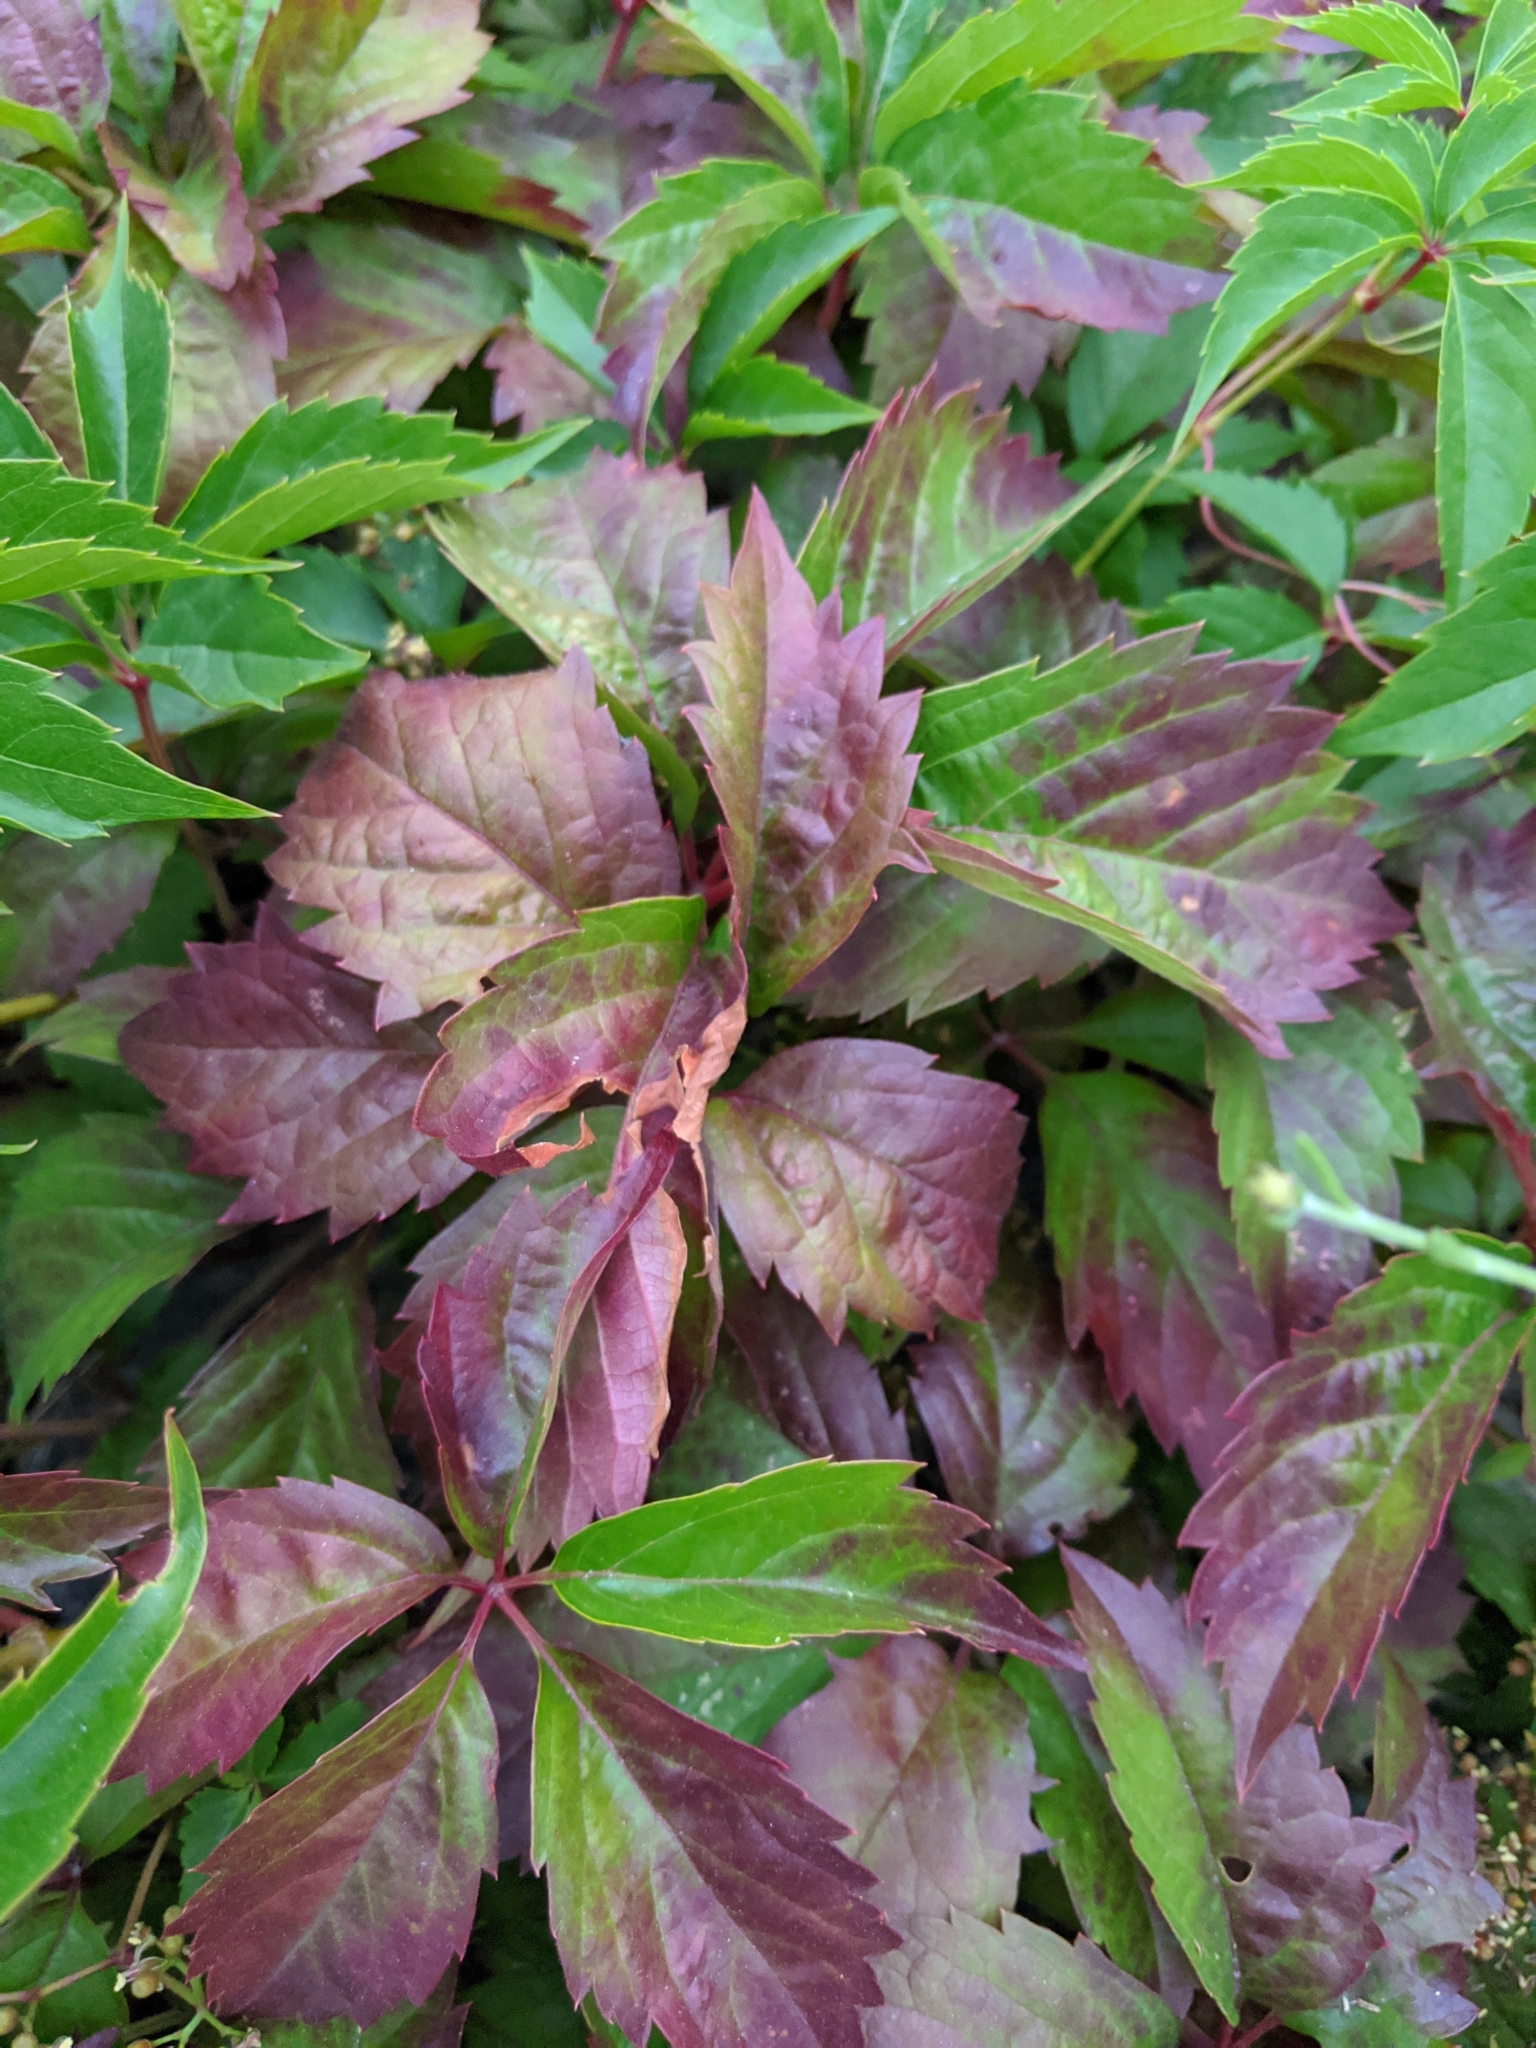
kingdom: Plantae
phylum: Tracheophyta
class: Magnoliopsida
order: Vitales
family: Vitaceae
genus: Parthenocissus
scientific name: Parthenocissus inserta
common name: False virginia-creeper
